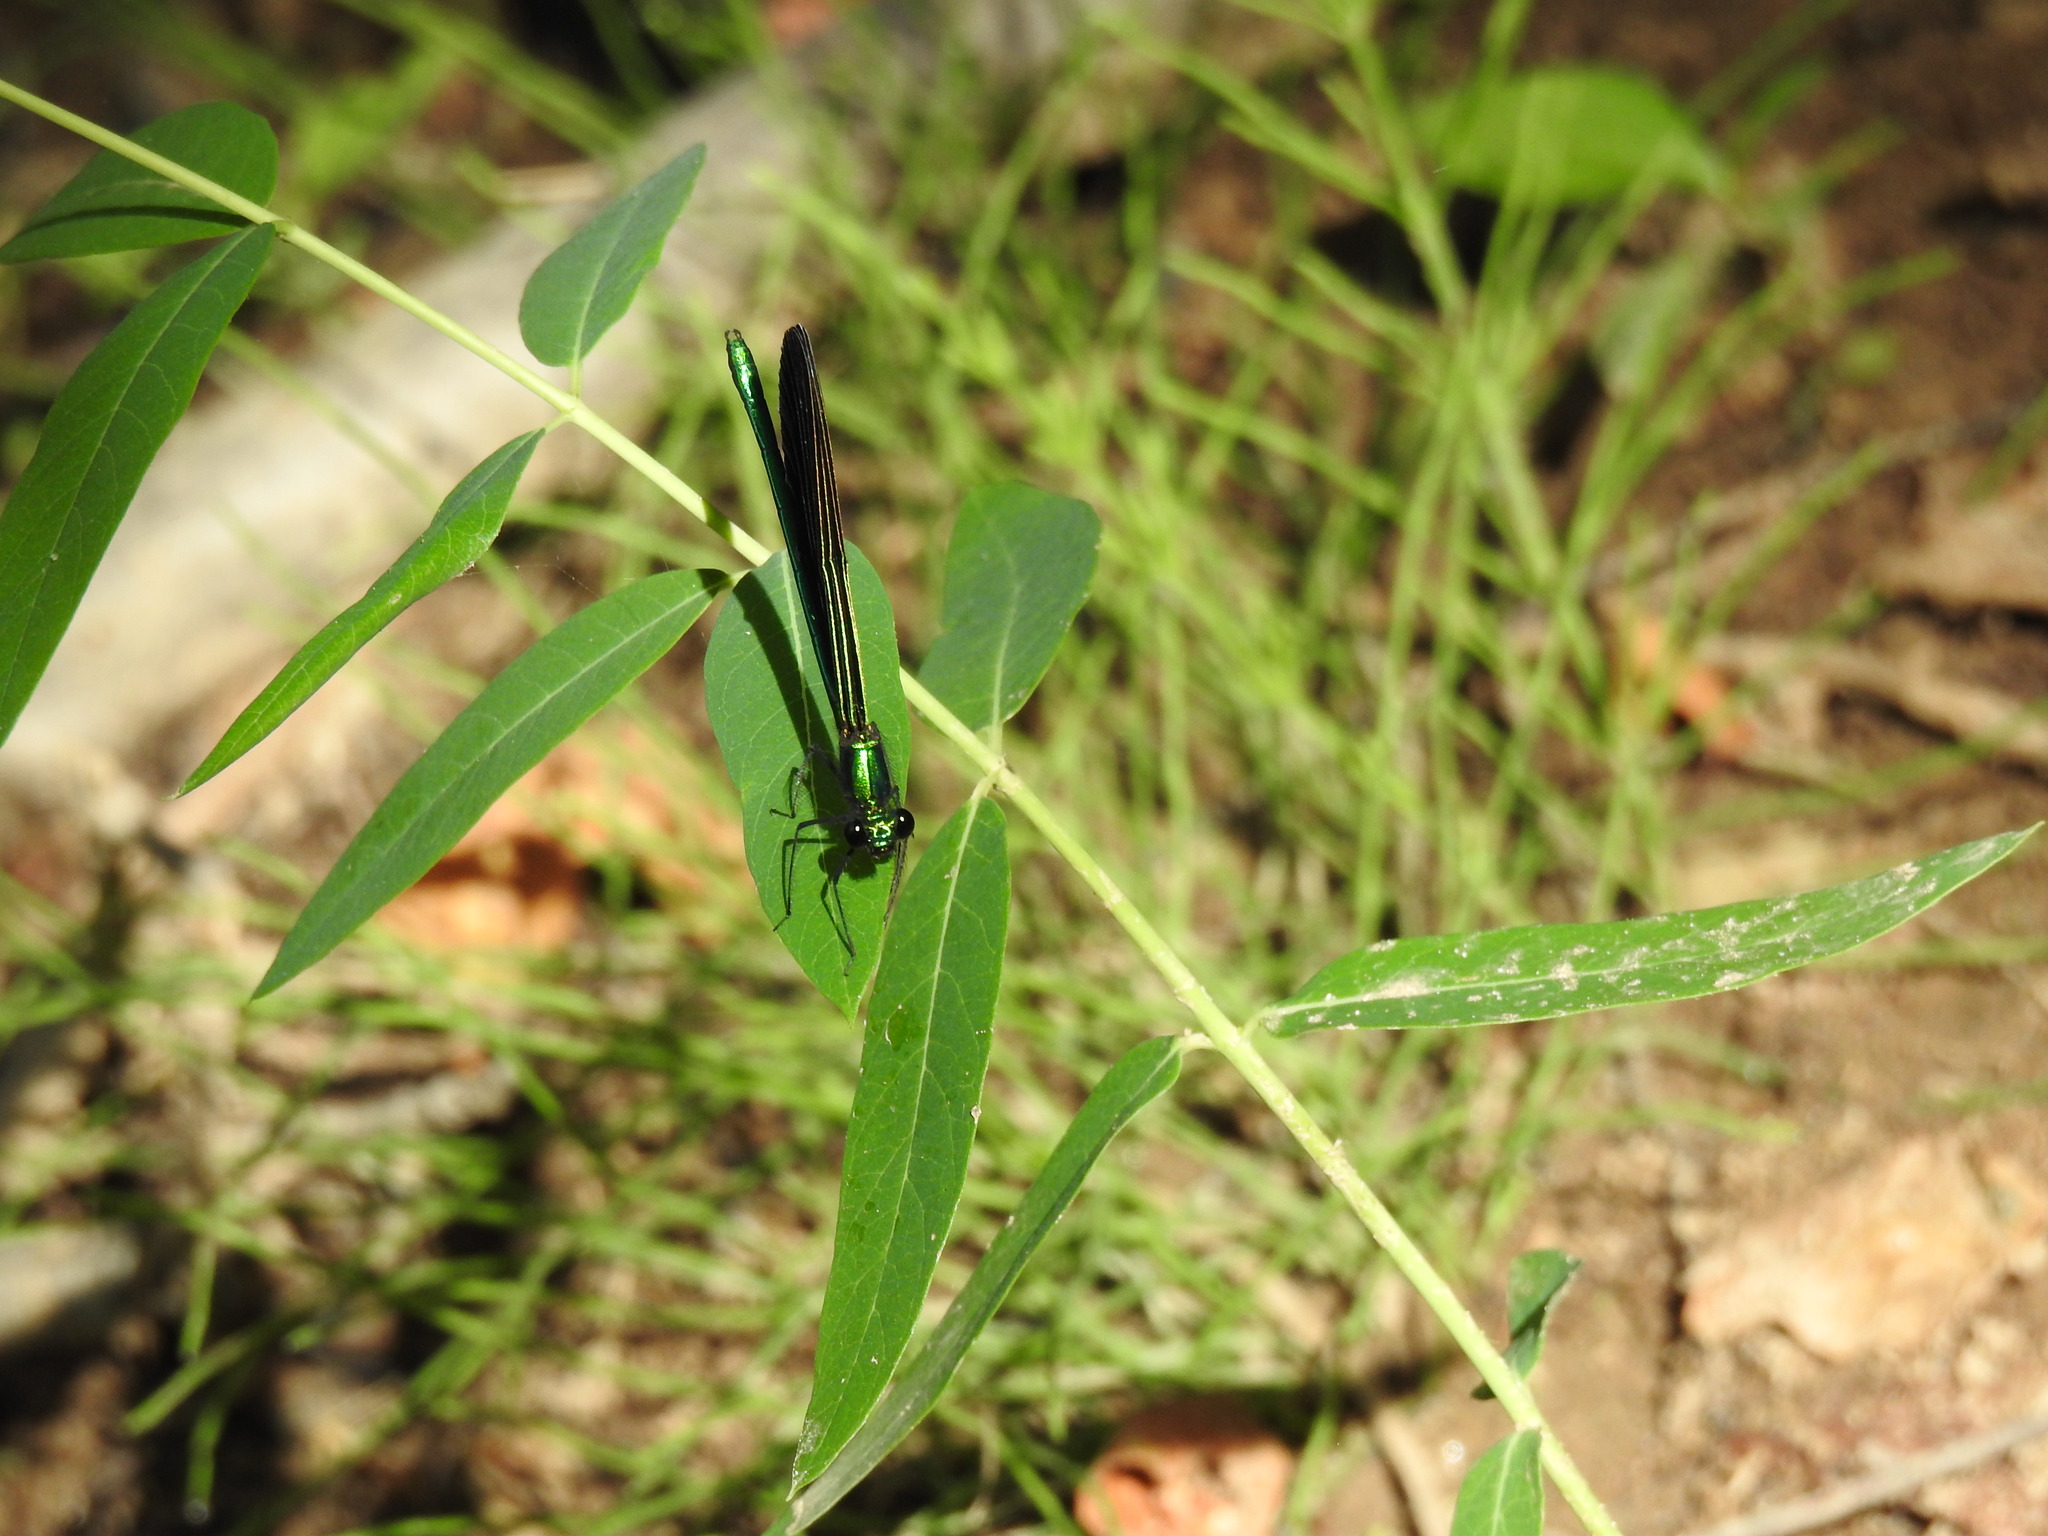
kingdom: Animalia
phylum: Arthropoda
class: Insecta
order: Odonata
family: Calopterygidae
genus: Calopteryx
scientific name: Calopteryx maculata
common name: Ebony jewelwing
